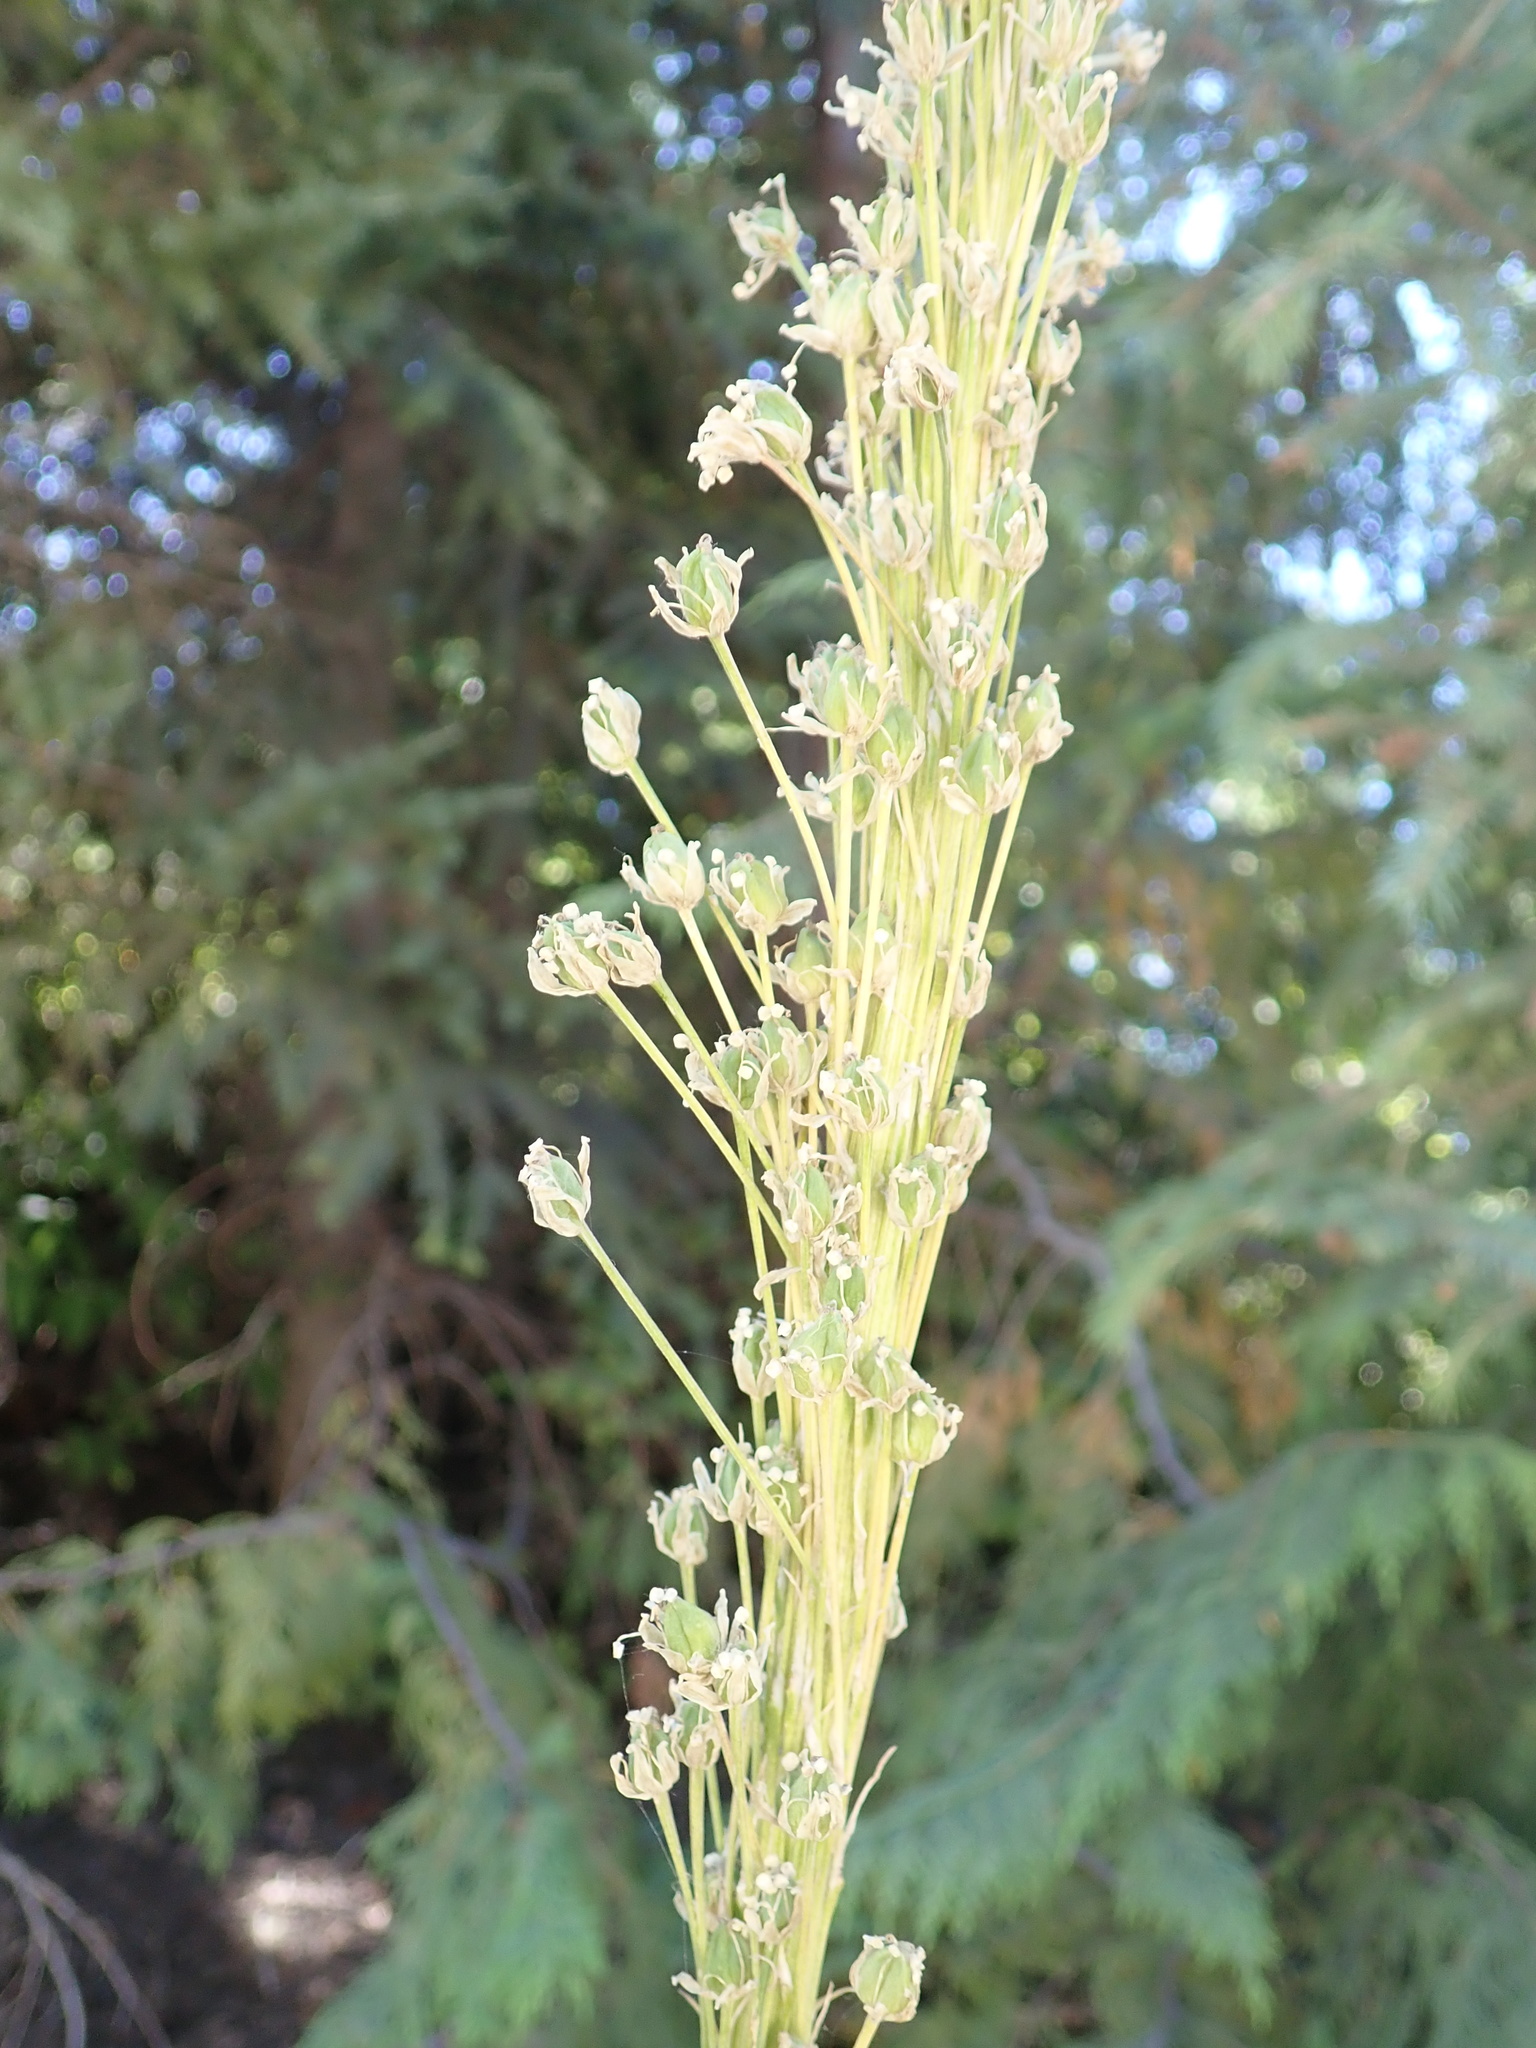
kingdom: Plantae
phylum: Tracheophyta
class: Liliopsida
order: Liliales
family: Melanthiaceae
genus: Xerophyllum
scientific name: Xerophyllum tenax
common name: Bear-grass
